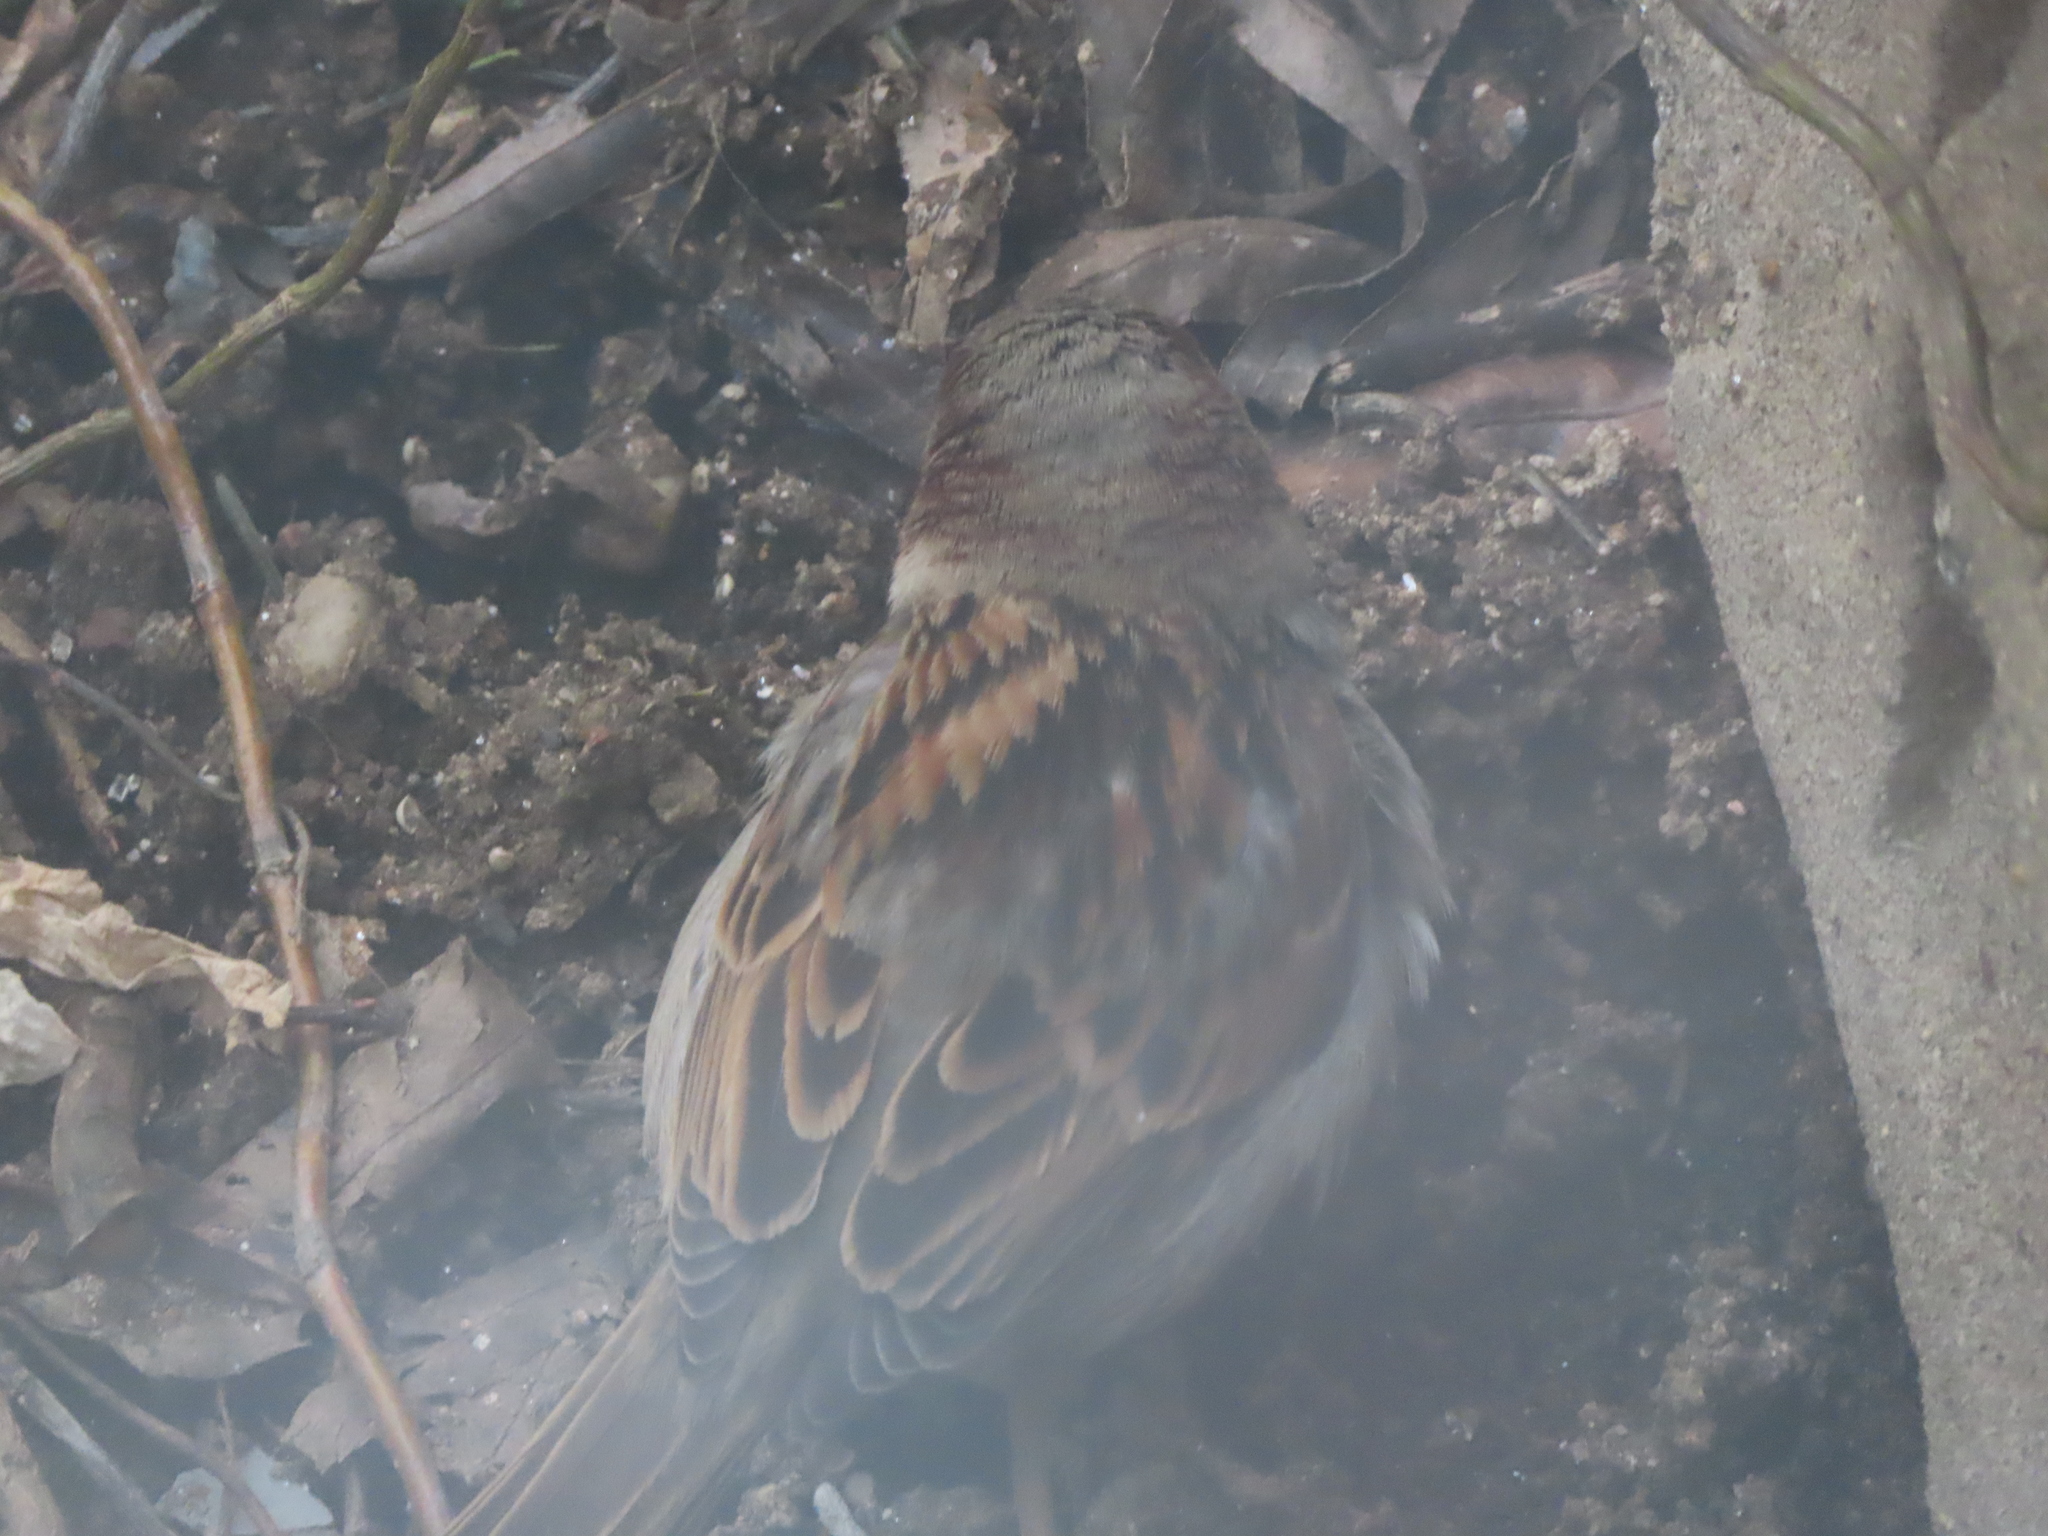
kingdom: Animalia
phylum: Chordata
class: Aves
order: Passeriformes
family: Passeridae
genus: Passer
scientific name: Passer domesticus
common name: House sparrow
